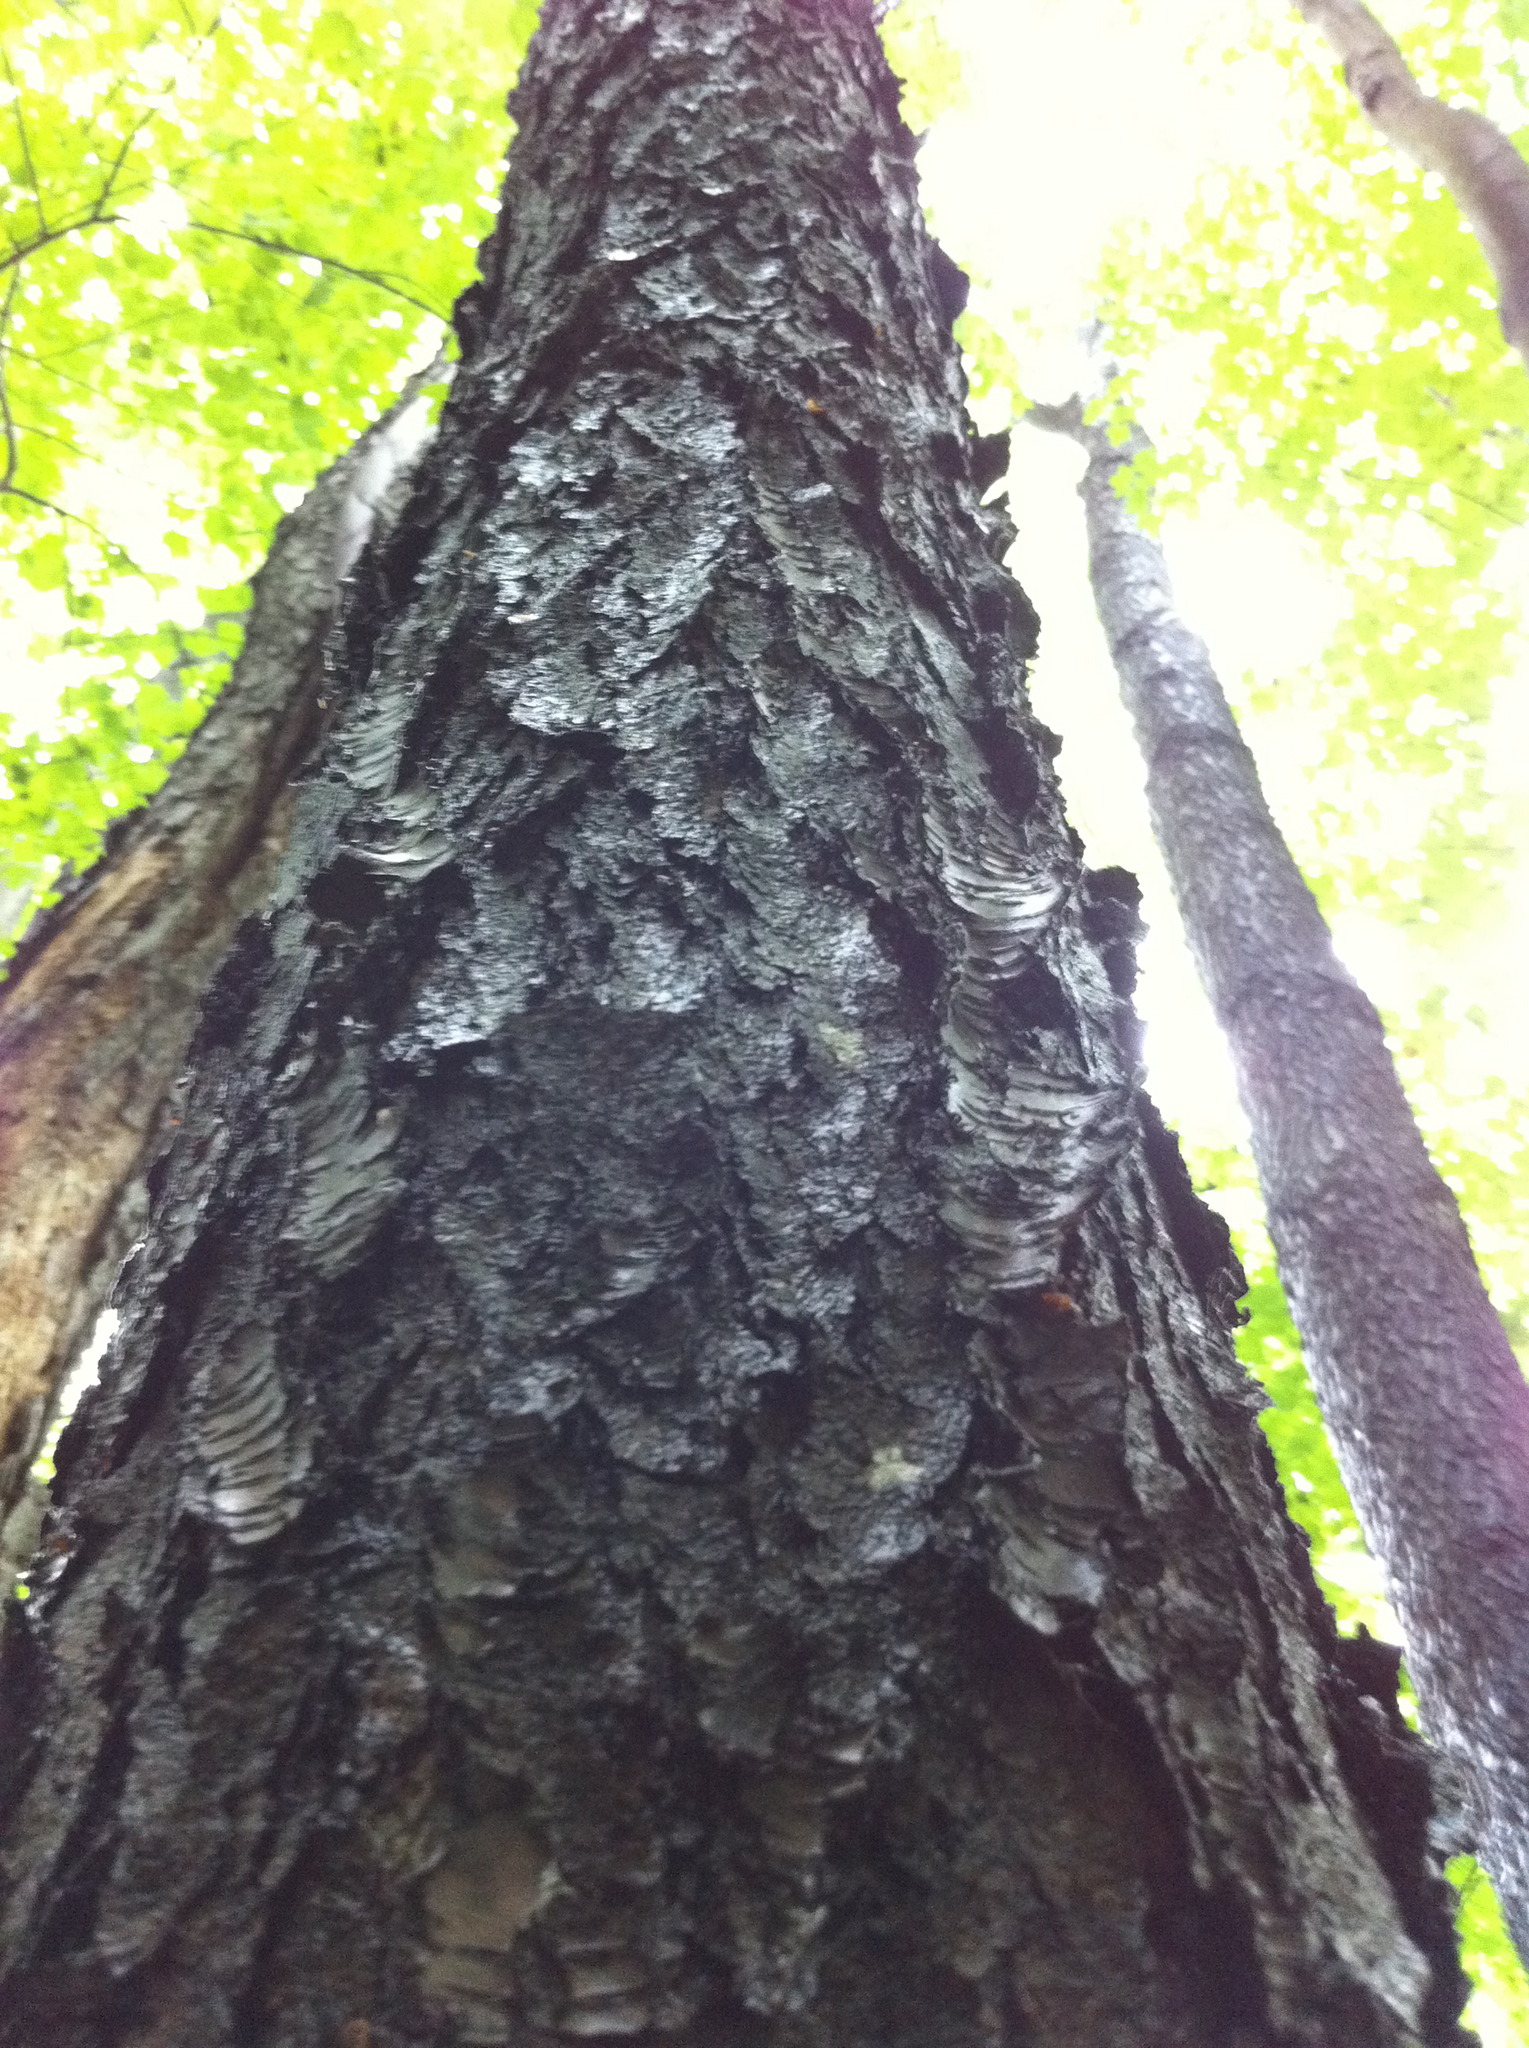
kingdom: Plantae
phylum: Tracheophyta
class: Magnoliopsida
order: Rosales
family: Rosaceae
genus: Prunus
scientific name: Prunus serotina
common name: Black cherry
